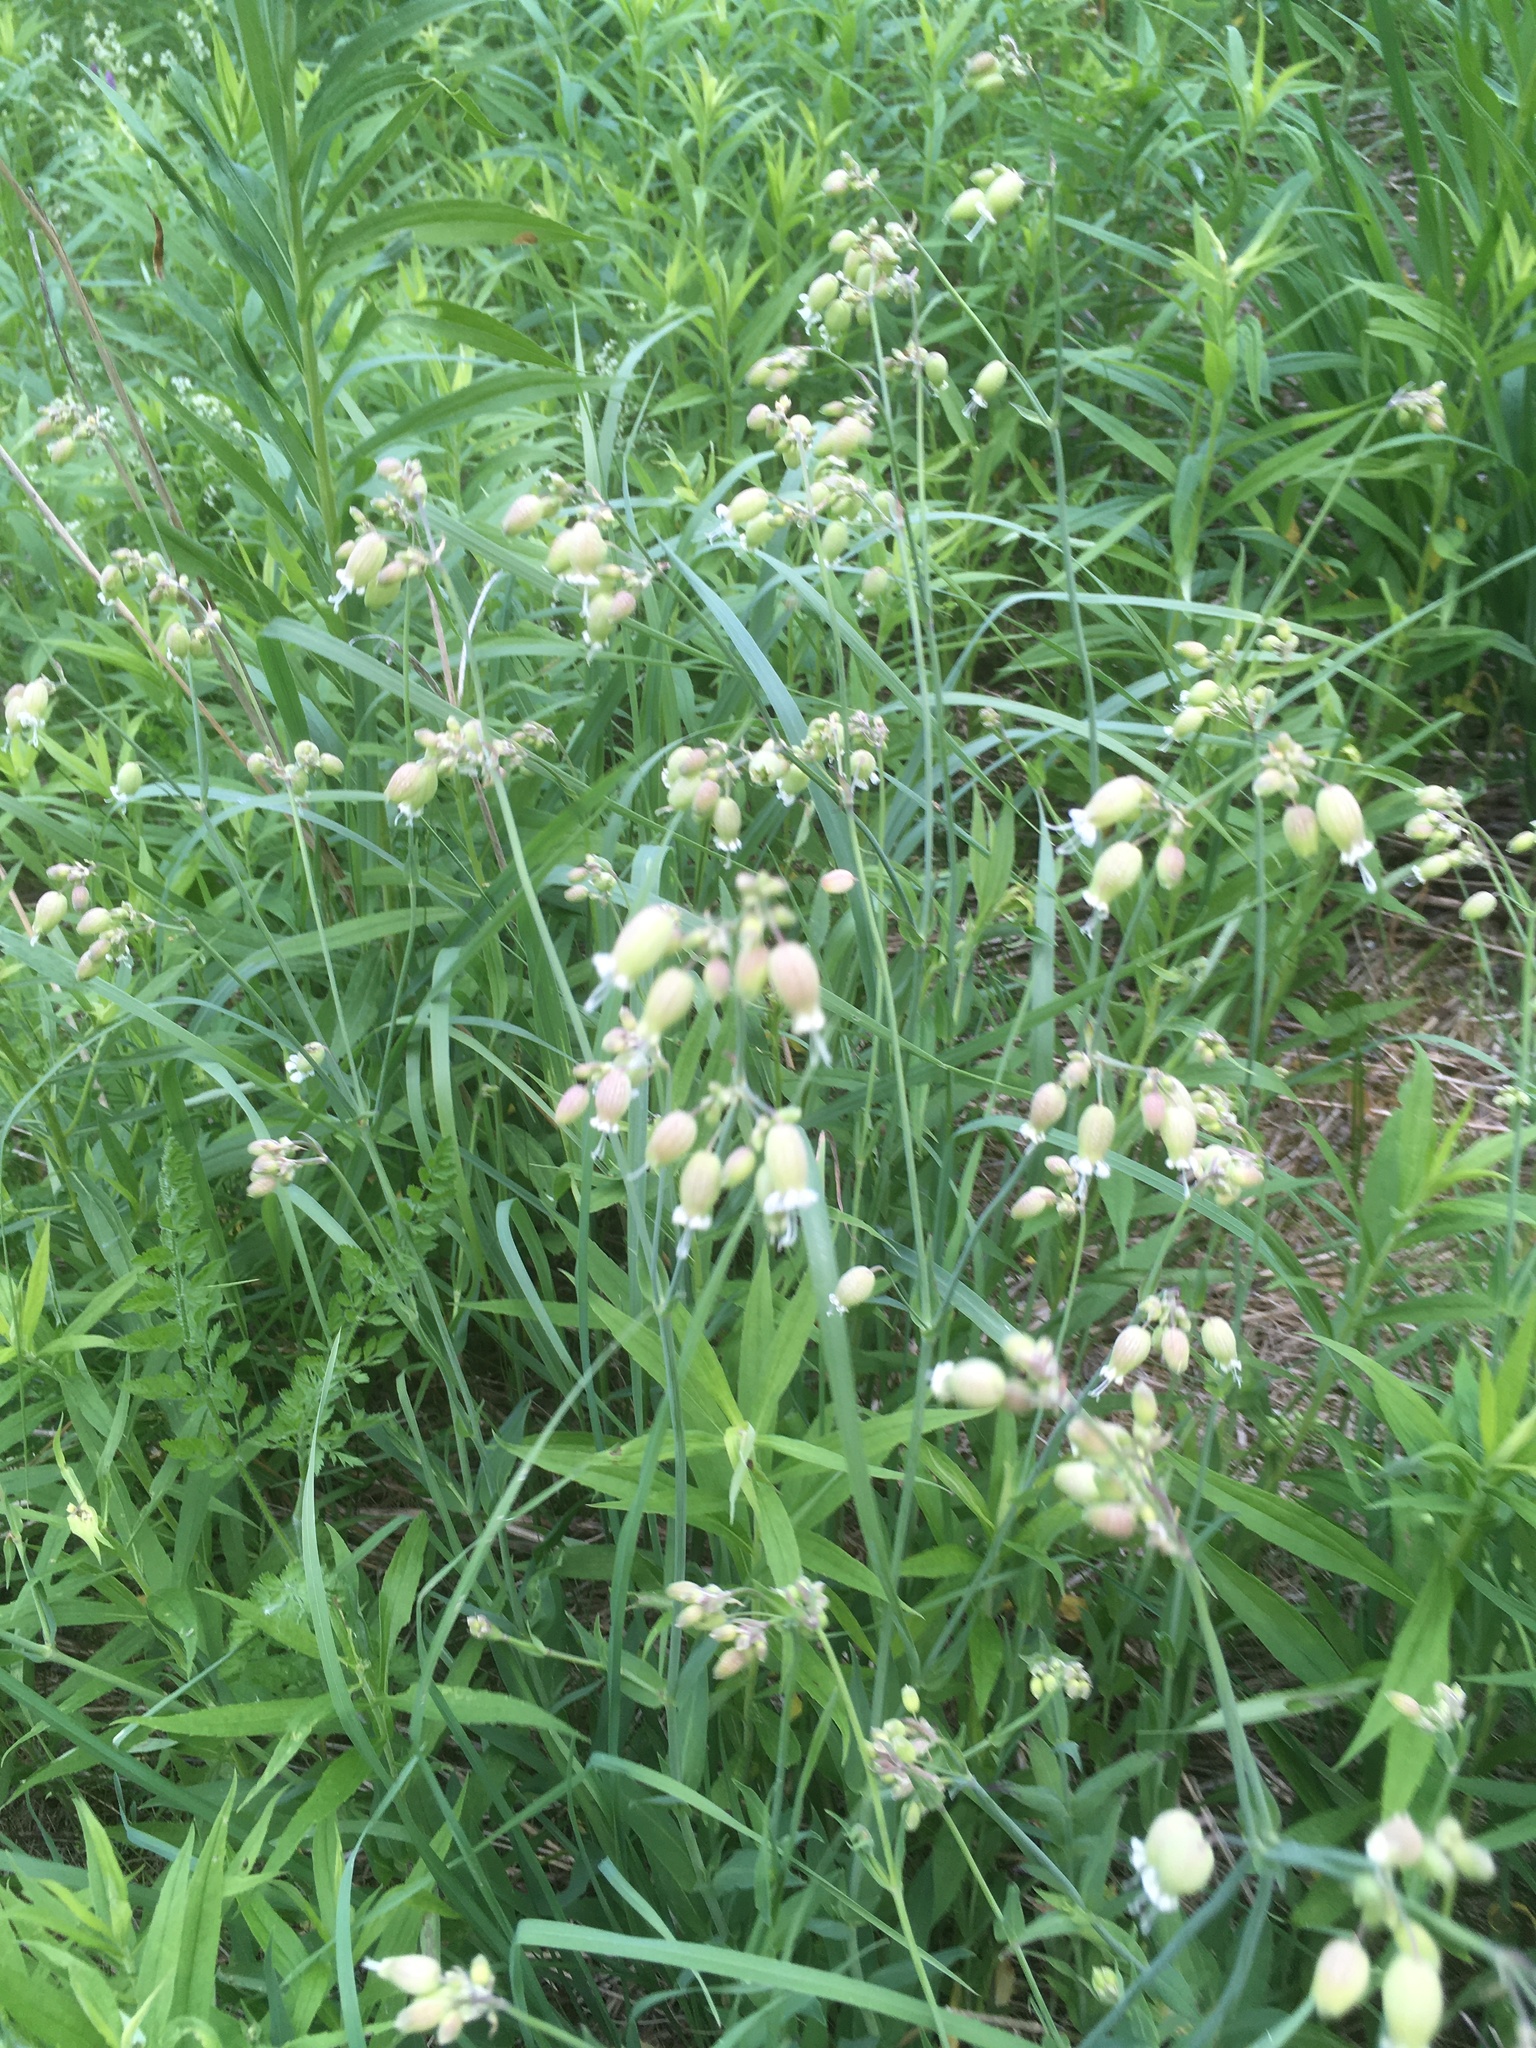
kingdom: Plantae
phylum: Tracheophyta
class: Magnoliopsida
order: Caryophyllales
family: Caryophyllaceae
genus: Silene
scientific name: Silene vulgaris
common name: Bladder campion
